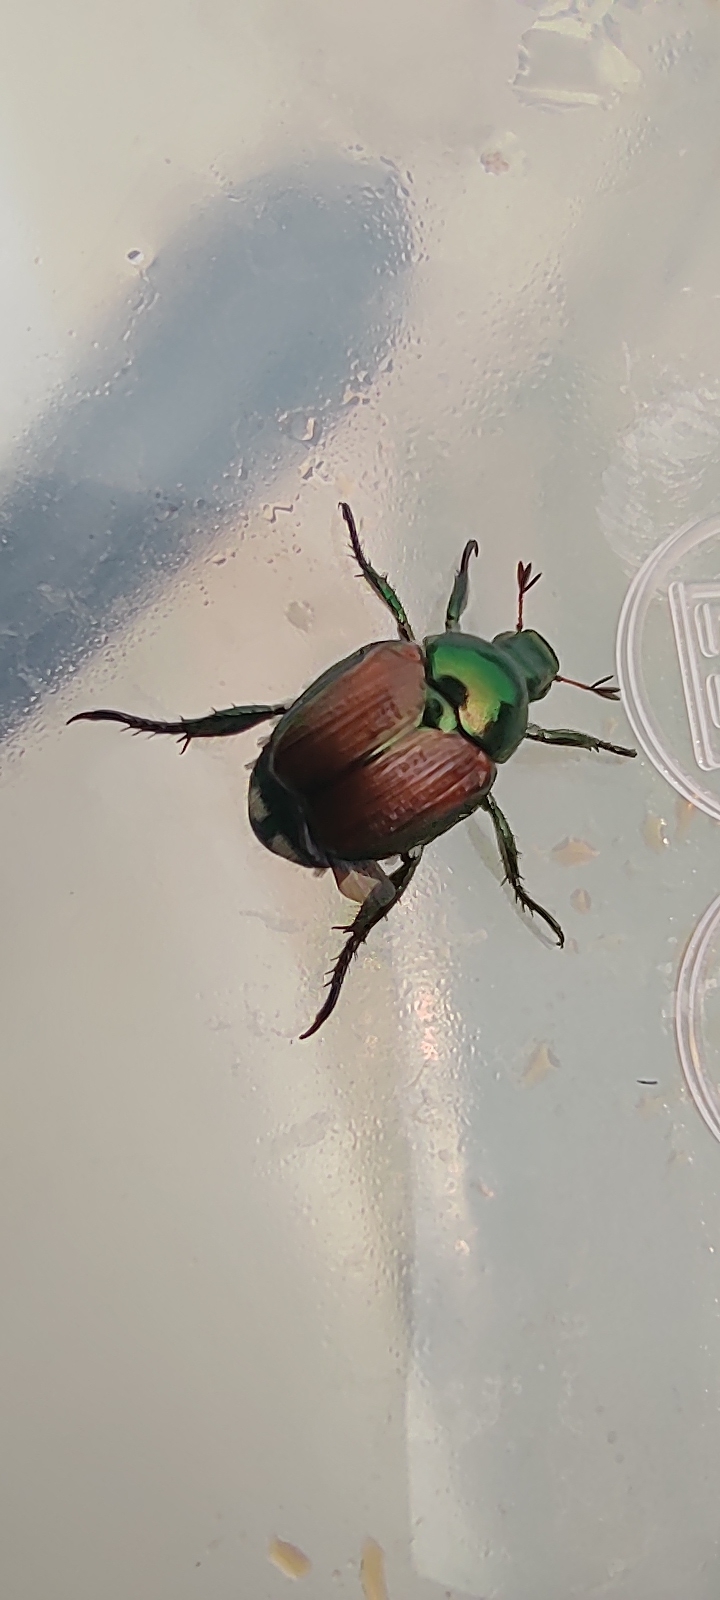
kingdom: Animalia
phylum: Arthropoda
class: Insecta
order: Coleoptera
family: Scarabaeidae
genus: Popillia
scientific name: Popillia japonica
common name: Japanese beetle
